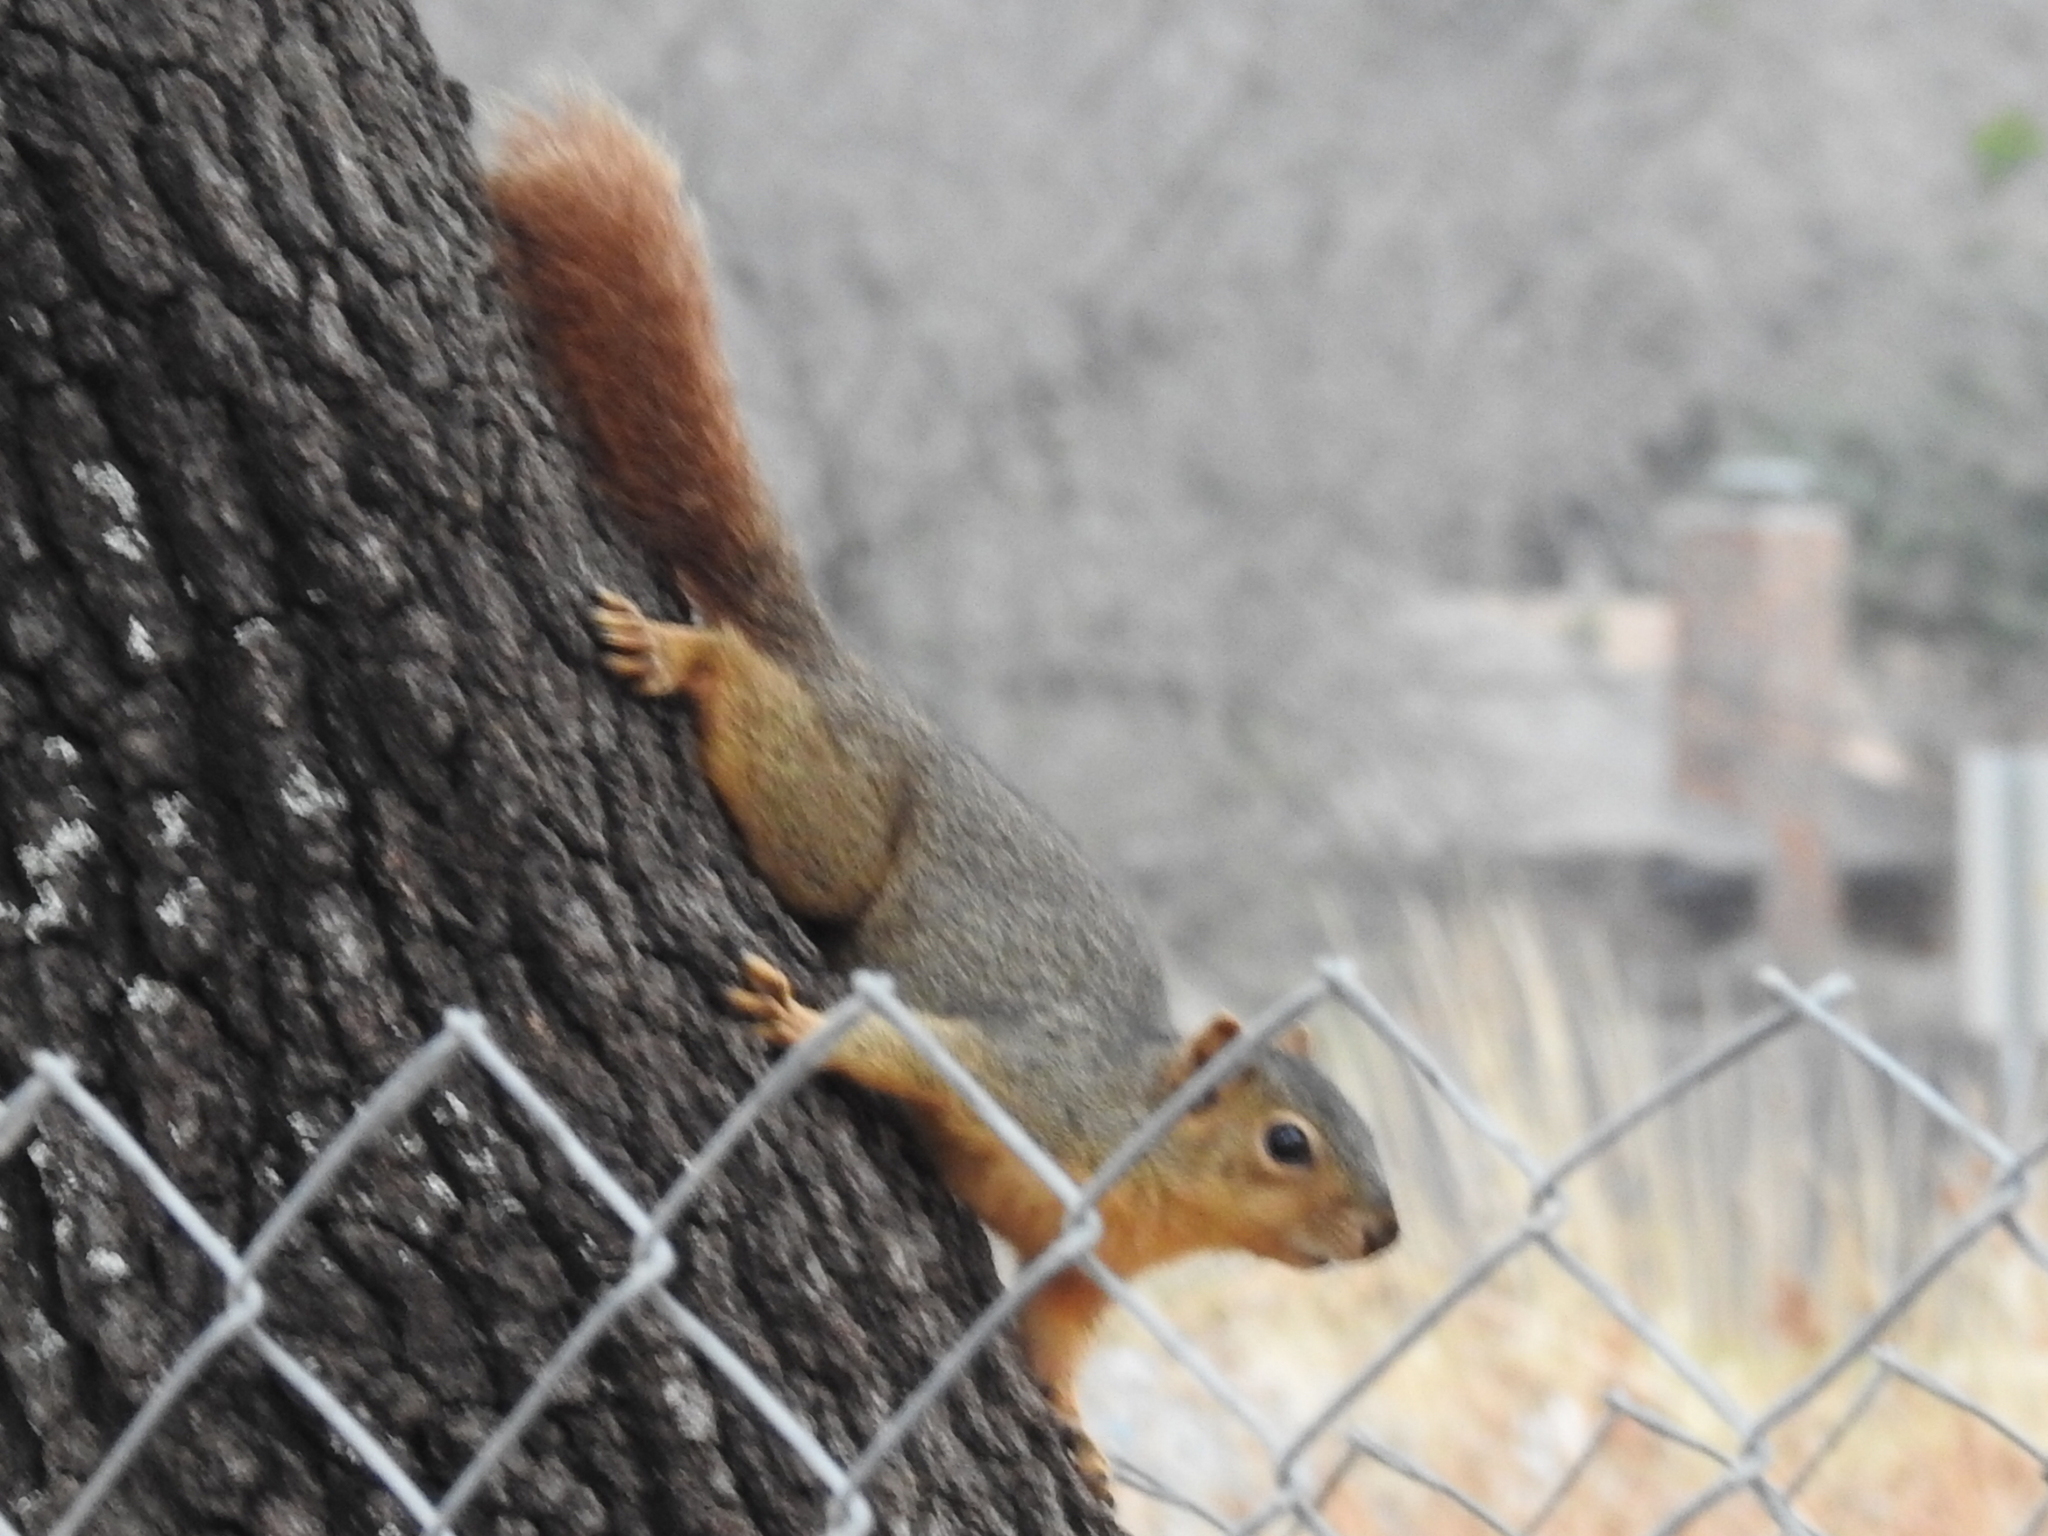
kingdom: Animalia
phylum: Chordata
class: Mammalia
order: Rodentia
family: Sciuridae
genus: Sciurus
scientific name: Sciurus niger
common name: Fox squirrel
